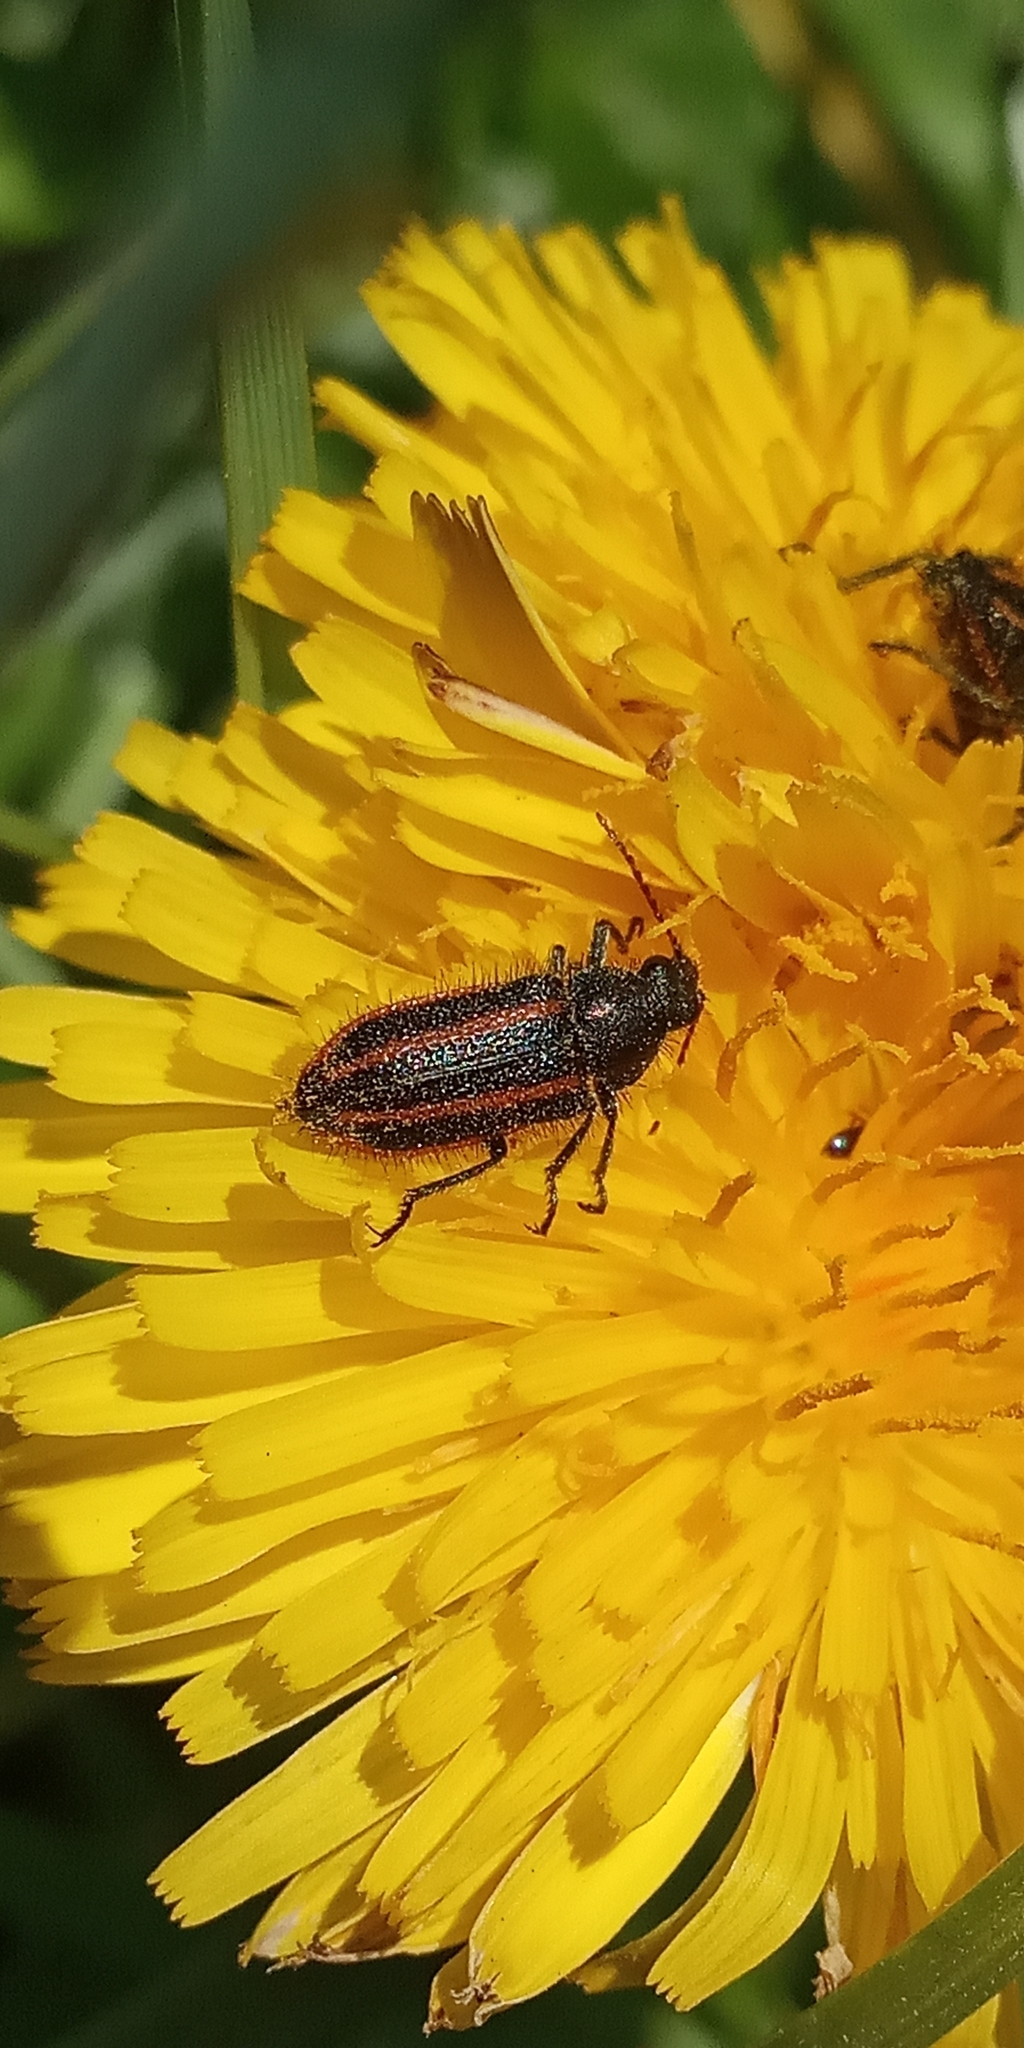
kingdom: Animalia
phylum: Arthropoda
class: Insecta
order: Coleoptera
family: Melyridae
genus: Astylus
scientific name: Astylus
